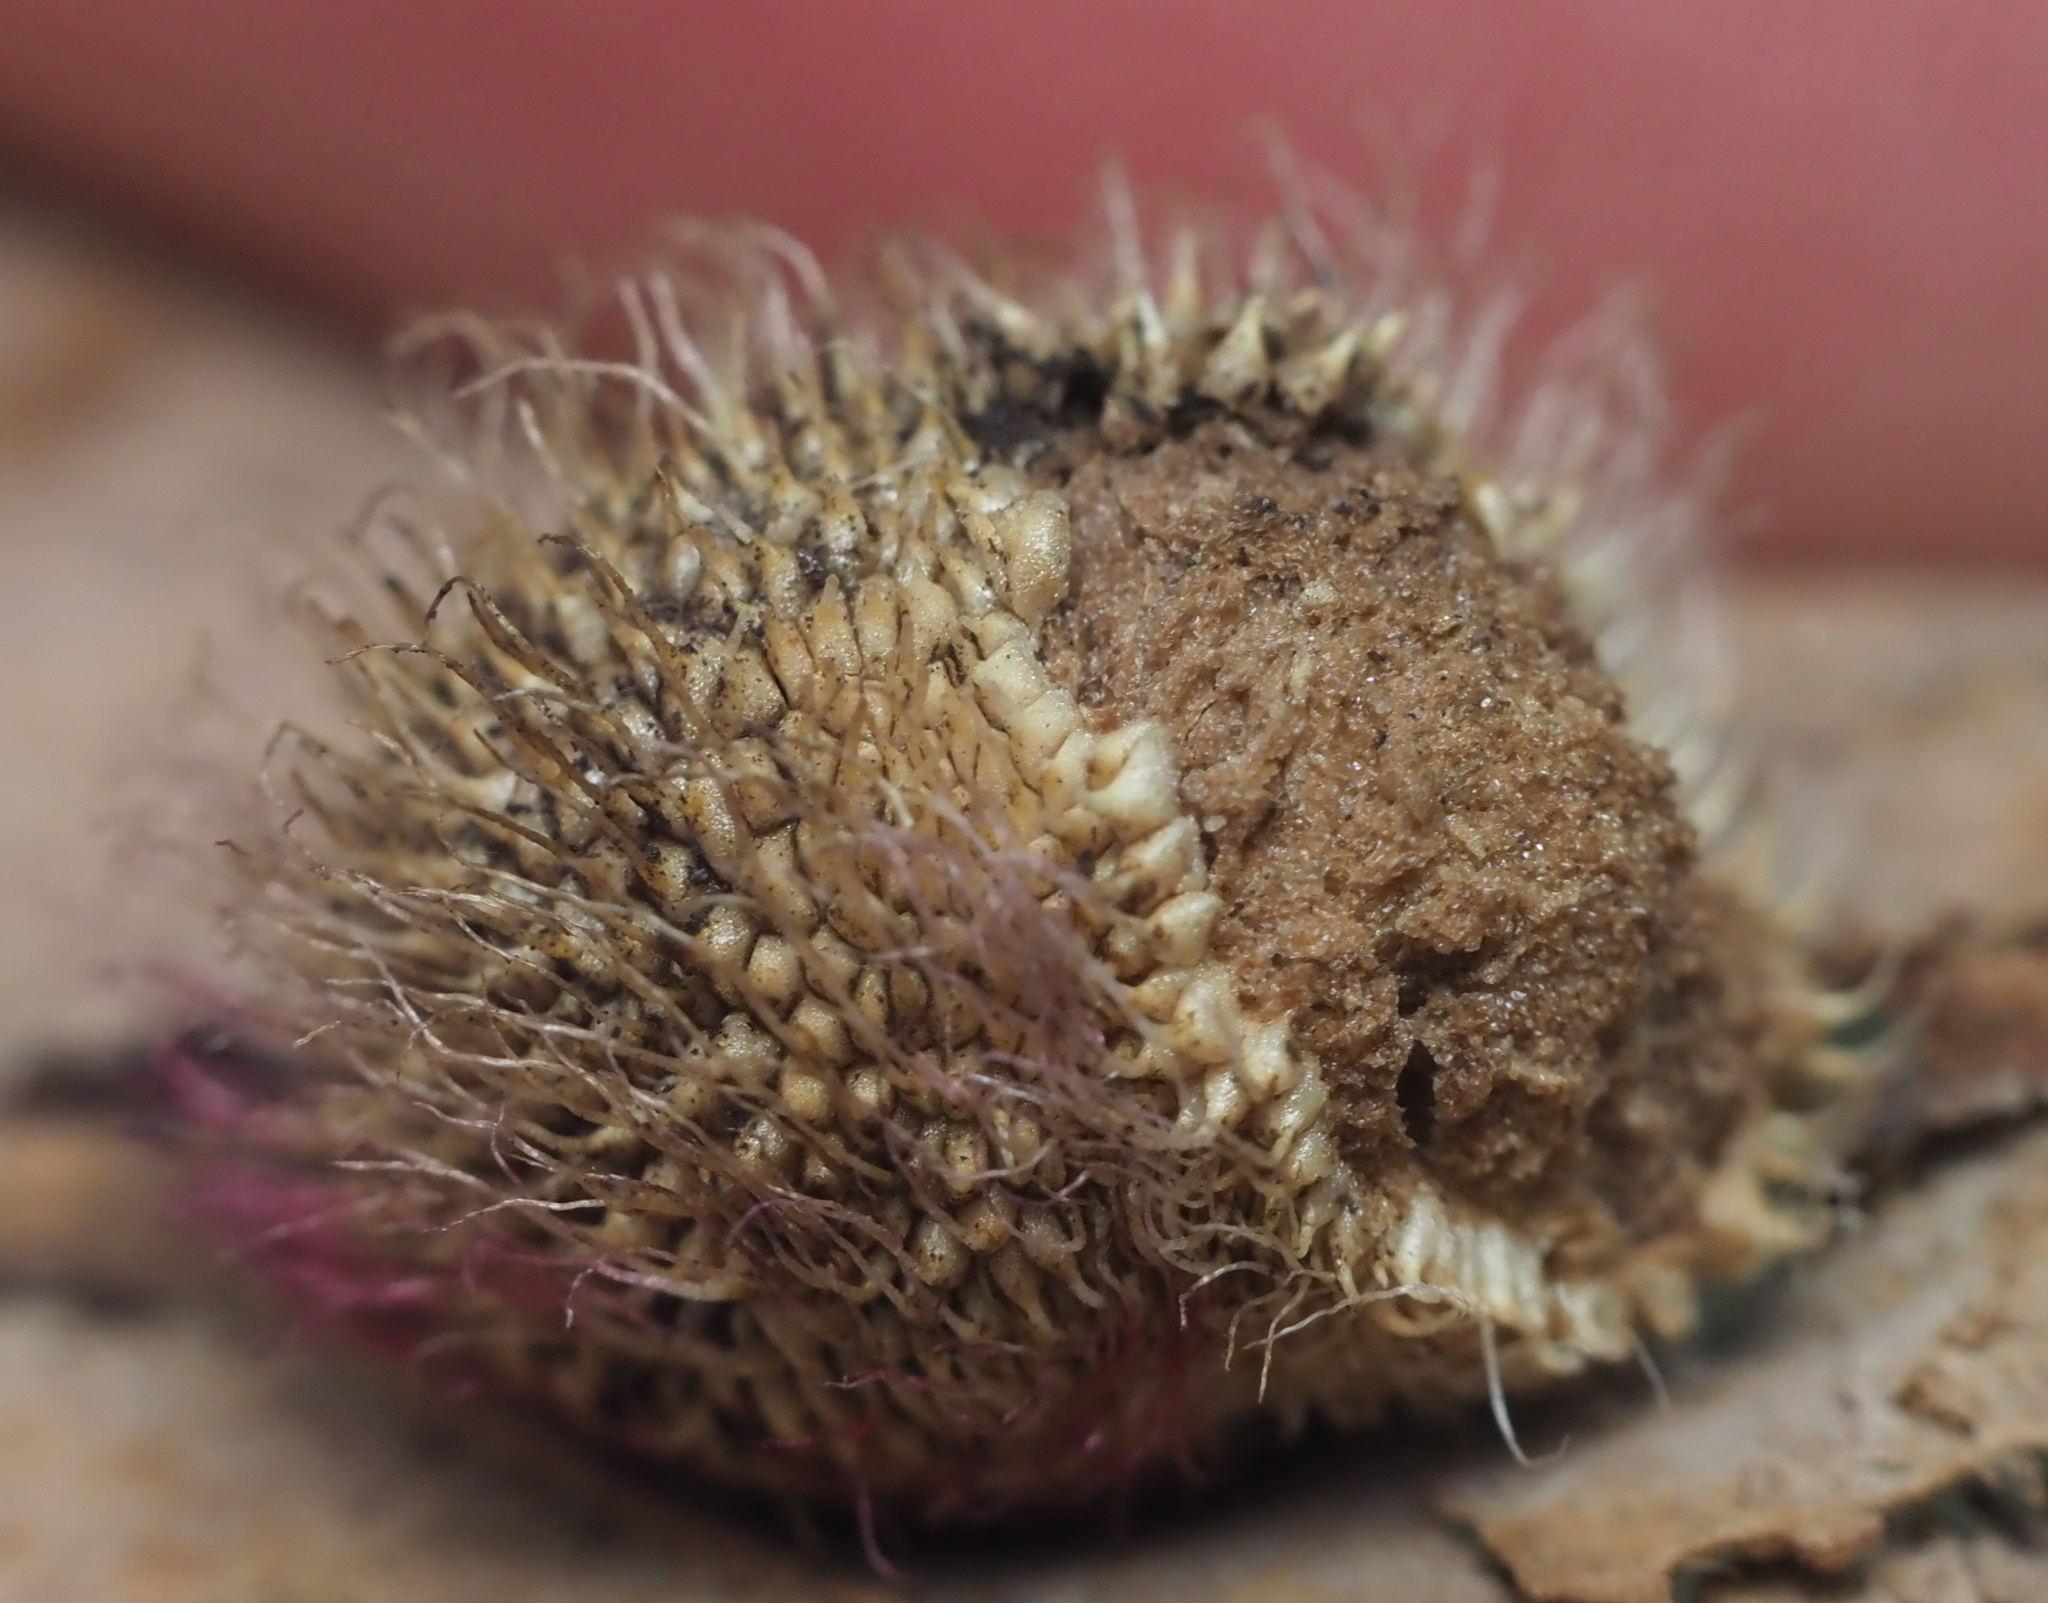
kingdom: Animalia
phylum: Arthropoda
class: Insecta
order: Hymenoptera
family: Cynipidae
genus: Acraspis
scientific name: Acraspis erinacei
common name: Hedgehog gall wasp
